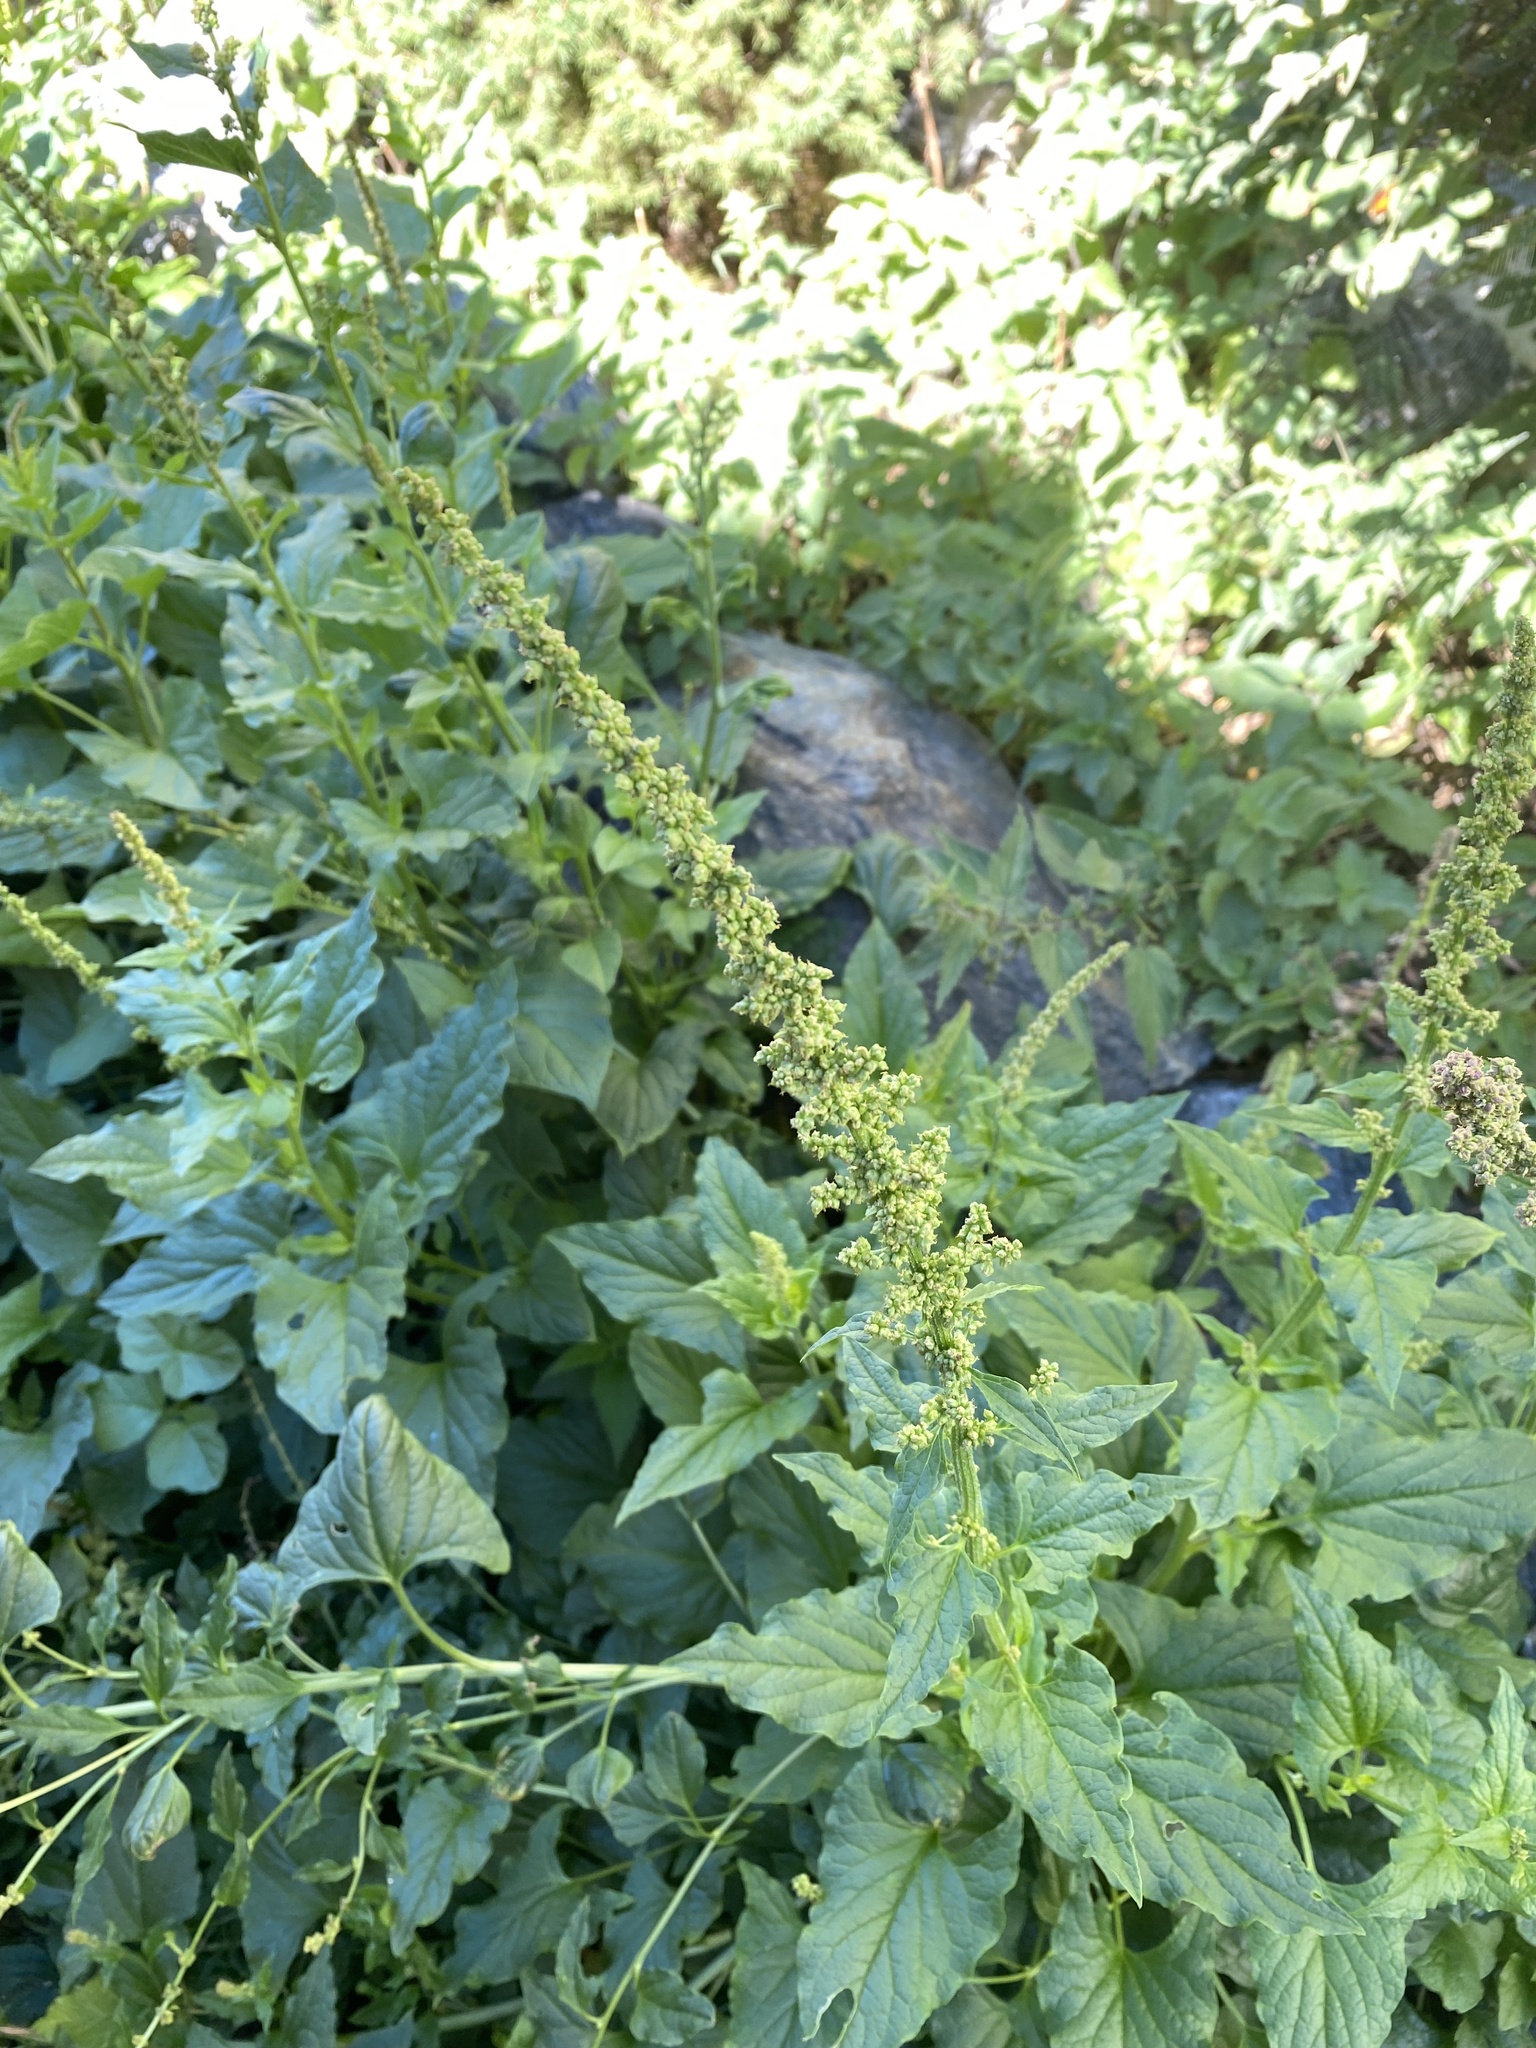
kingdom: Plantae
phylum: Tracheophyta
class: Magnoliopsida
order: Caryophyllales
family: Amaranthaceae
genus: Blitum
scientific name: Blitum bonus-henricus
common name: Good king henry
